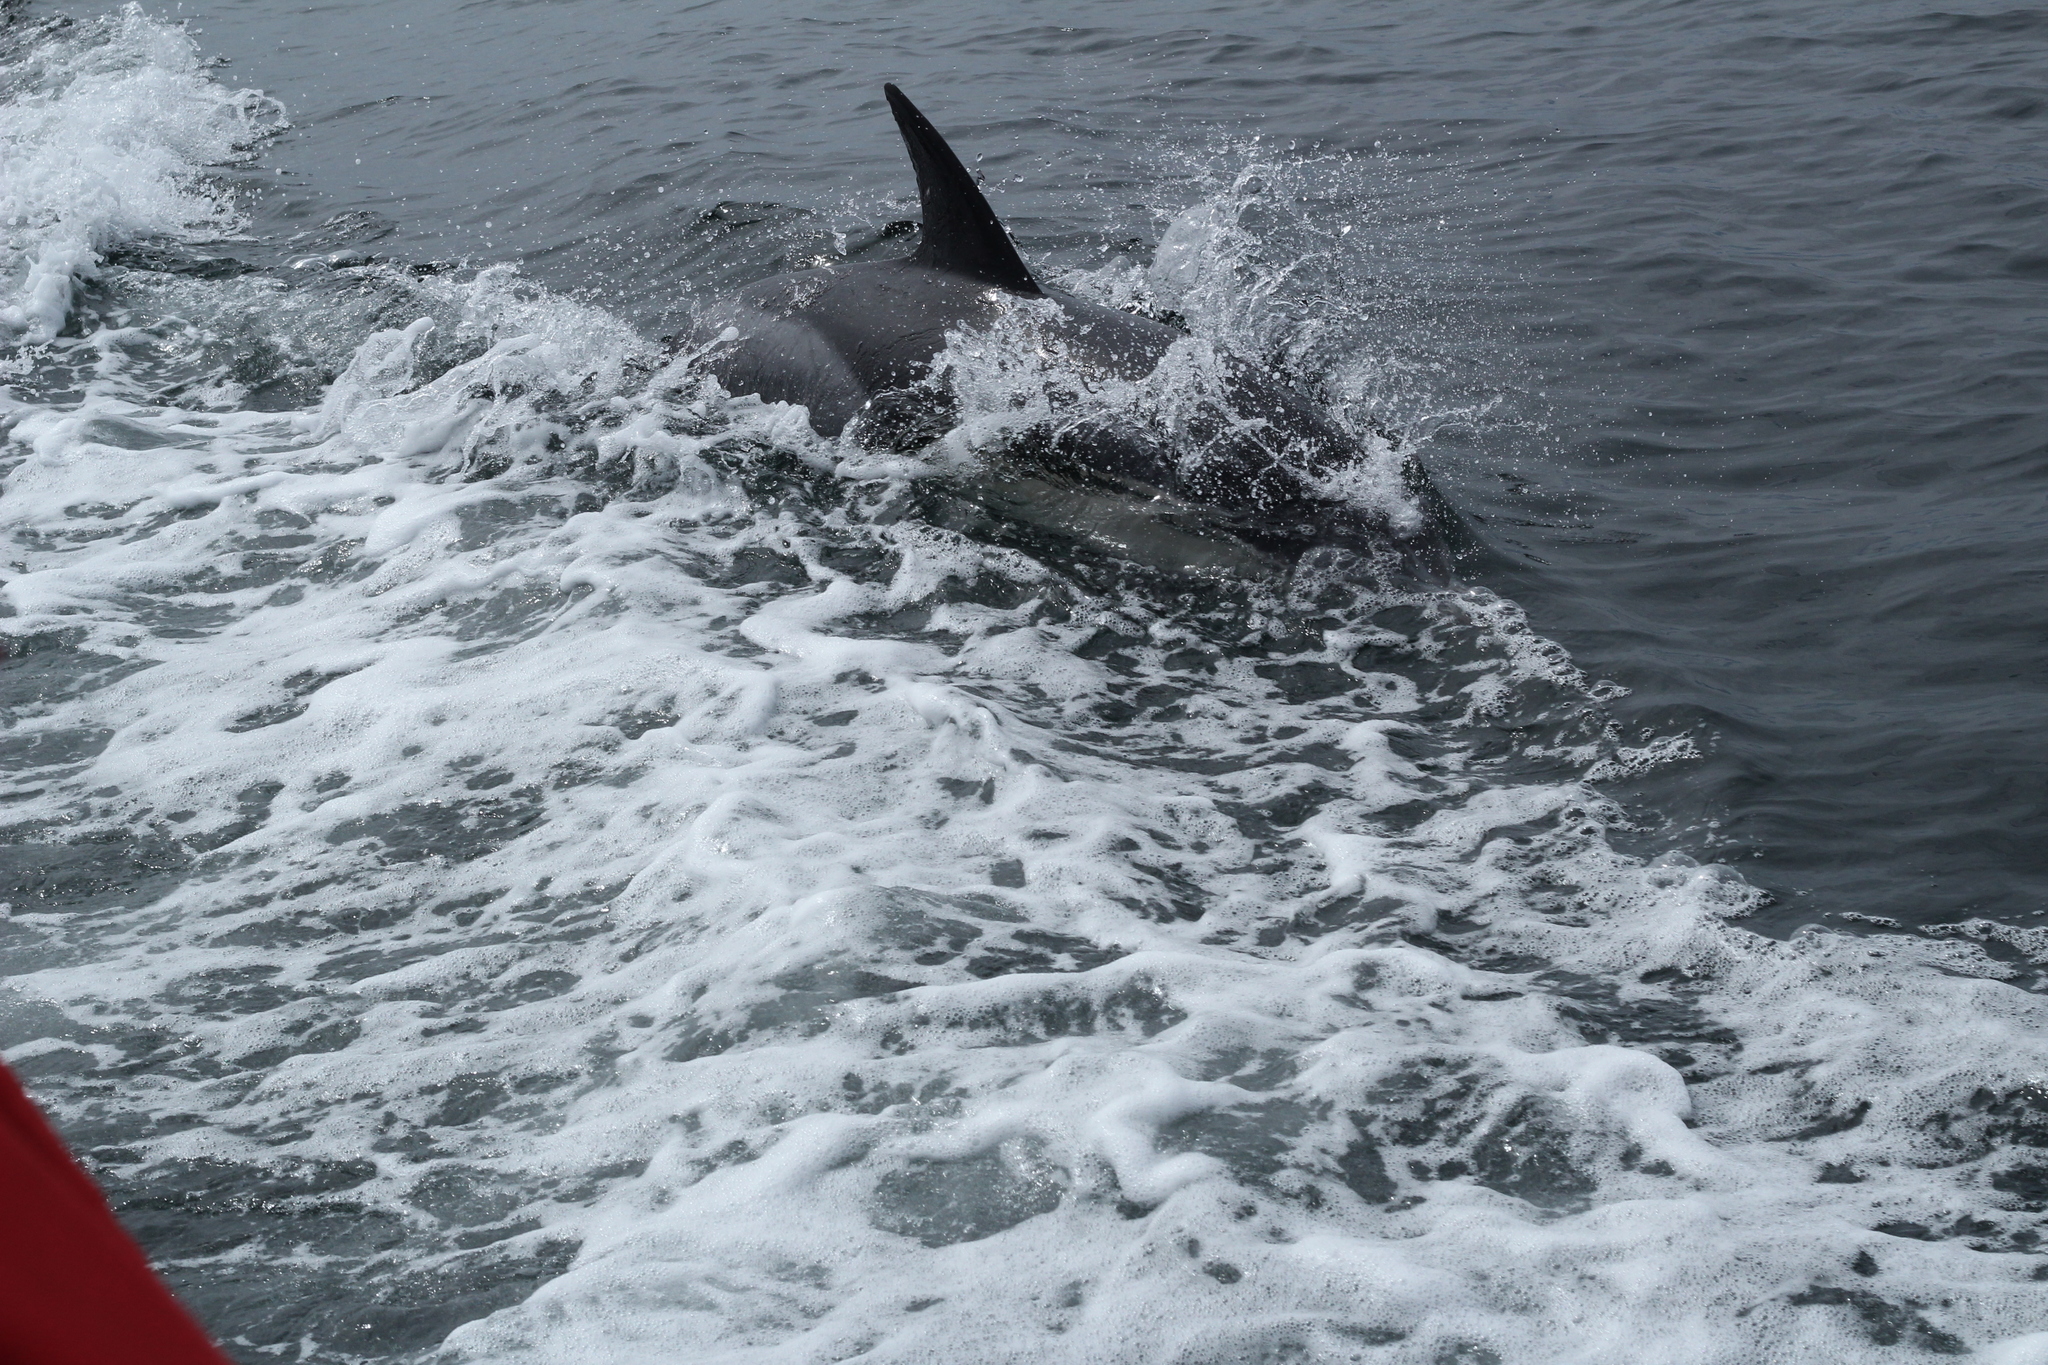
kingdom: Animalia
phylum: Chordata
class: Mammalia
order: Cetacea
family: Delphinidae
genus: Delphinus
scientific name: Delphinus delphis
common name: Common dolphin
